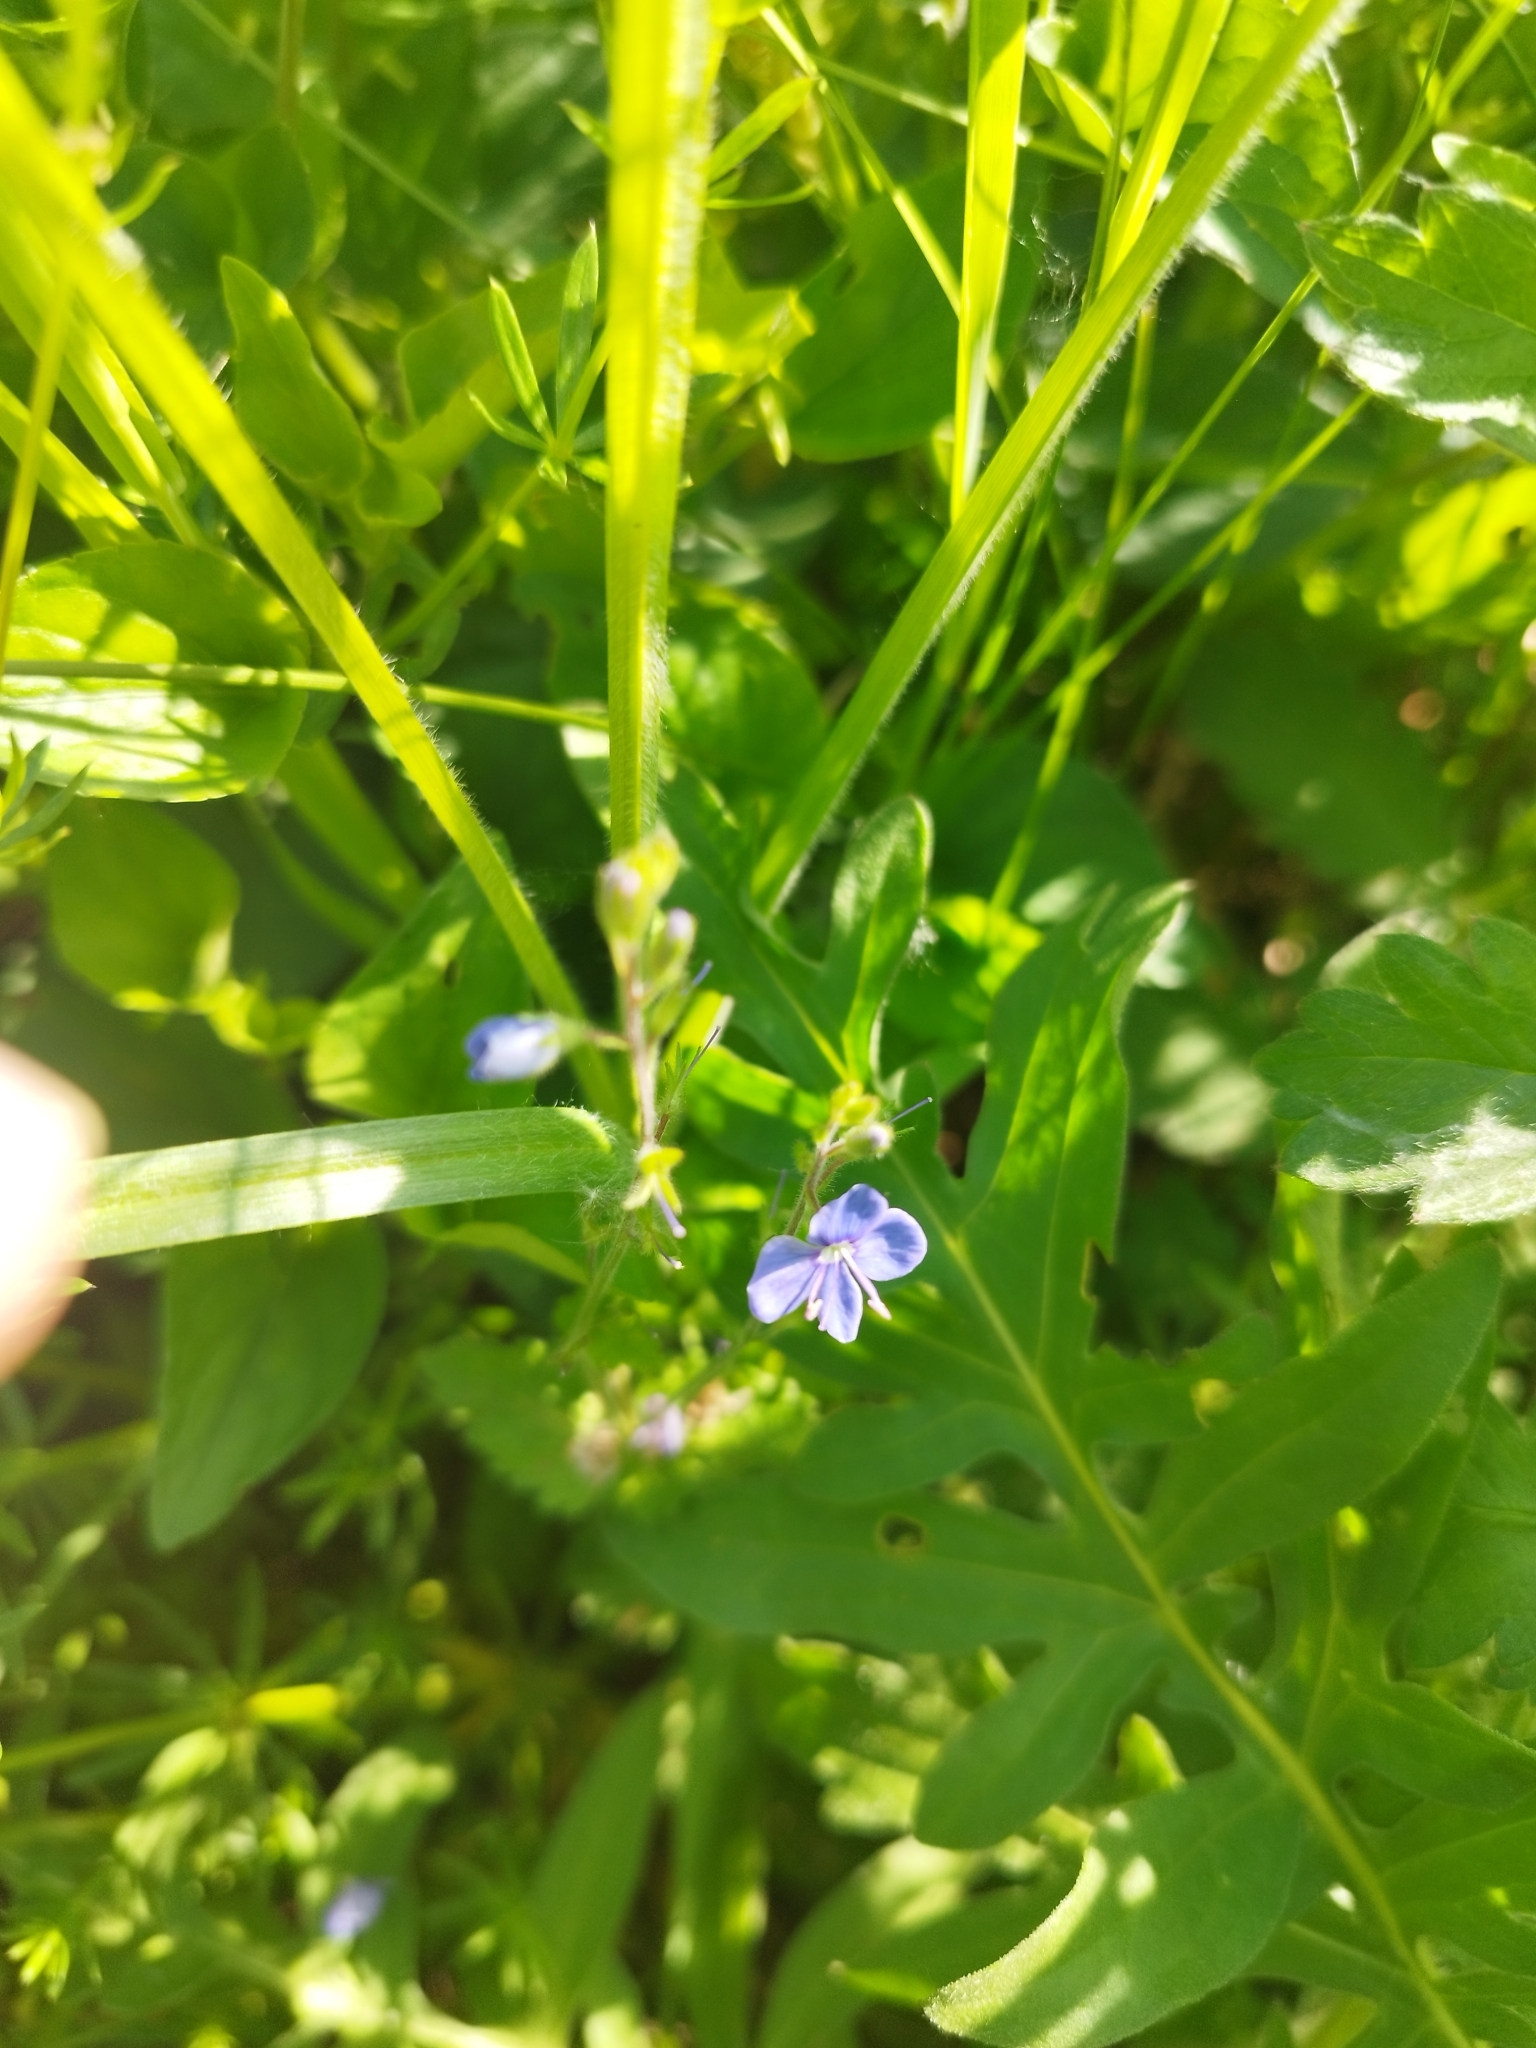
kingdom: Plantae
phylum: Tracheophyta
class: Magnoliopsida
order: Lamiales
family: Plantaginaceae
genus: Veronica
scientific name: Veronica chamaedrys
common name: Germander speedwell
